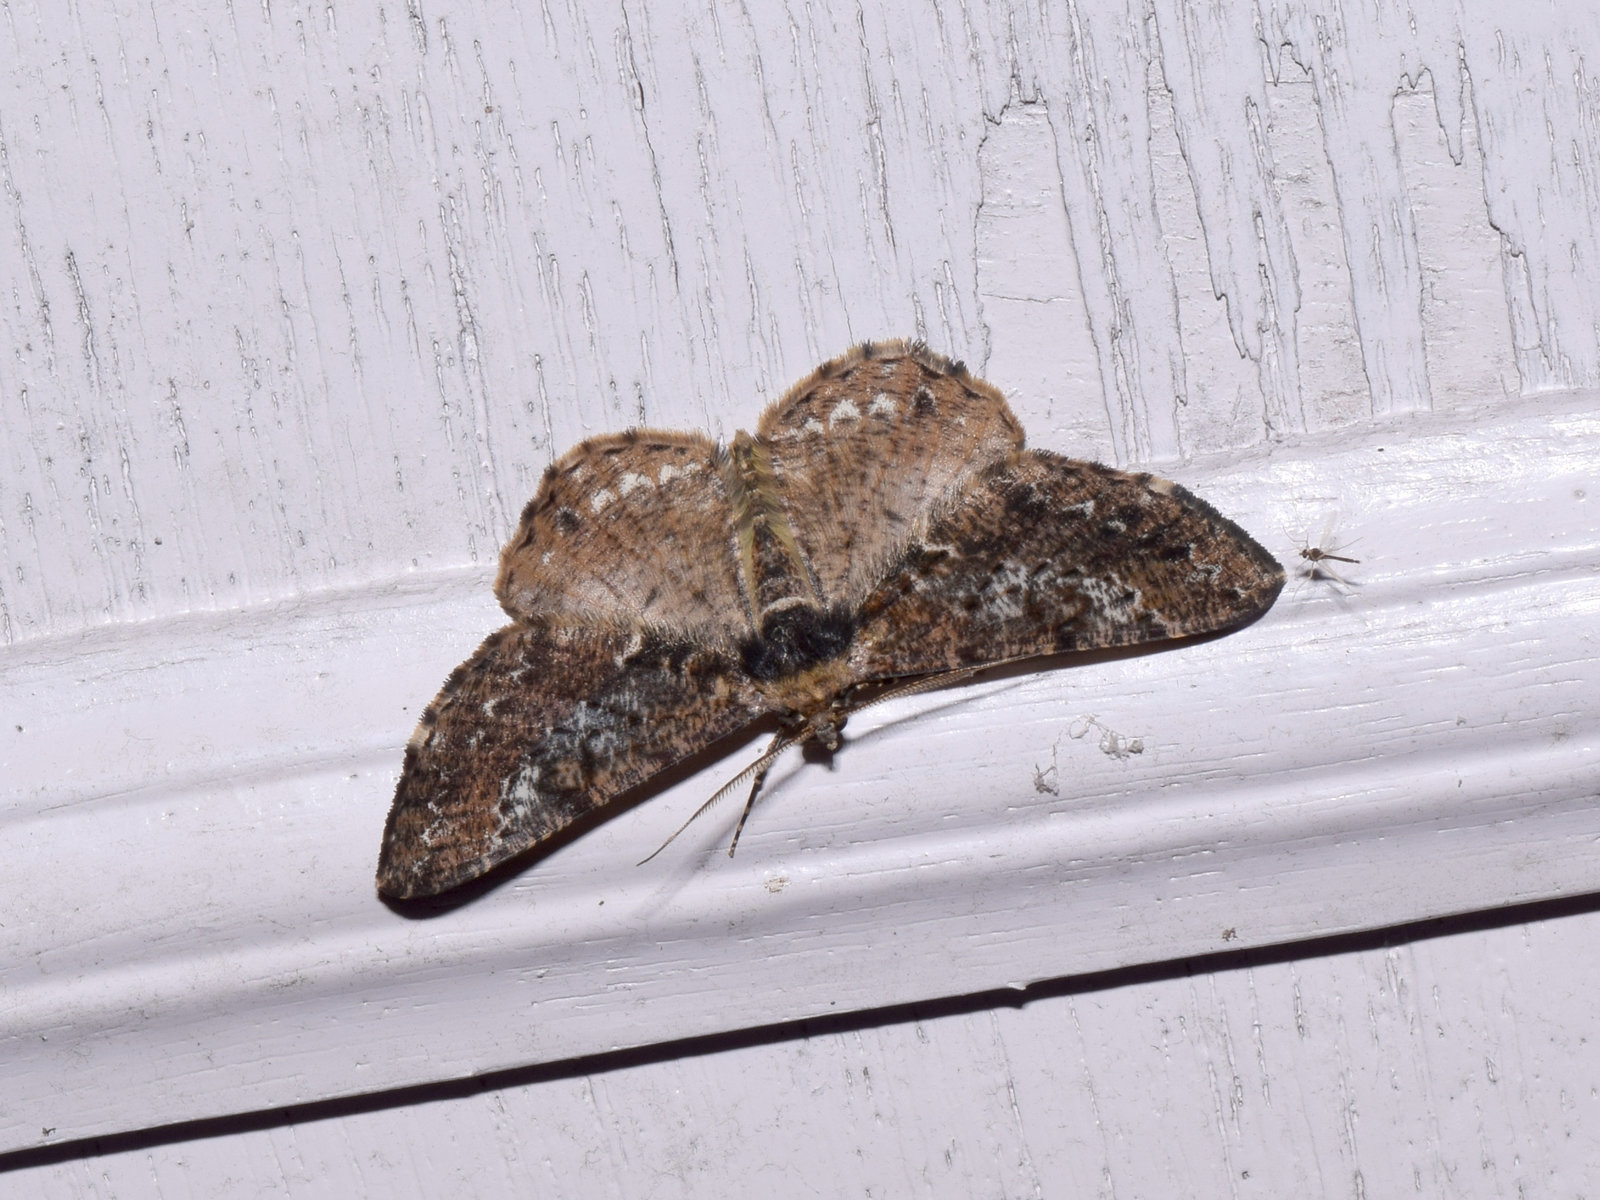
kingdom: Animalia
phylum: Arthropoda
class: Insecta
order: Lepidoptera
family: Geometridae
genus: Alcis
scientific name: Alcis variegata
